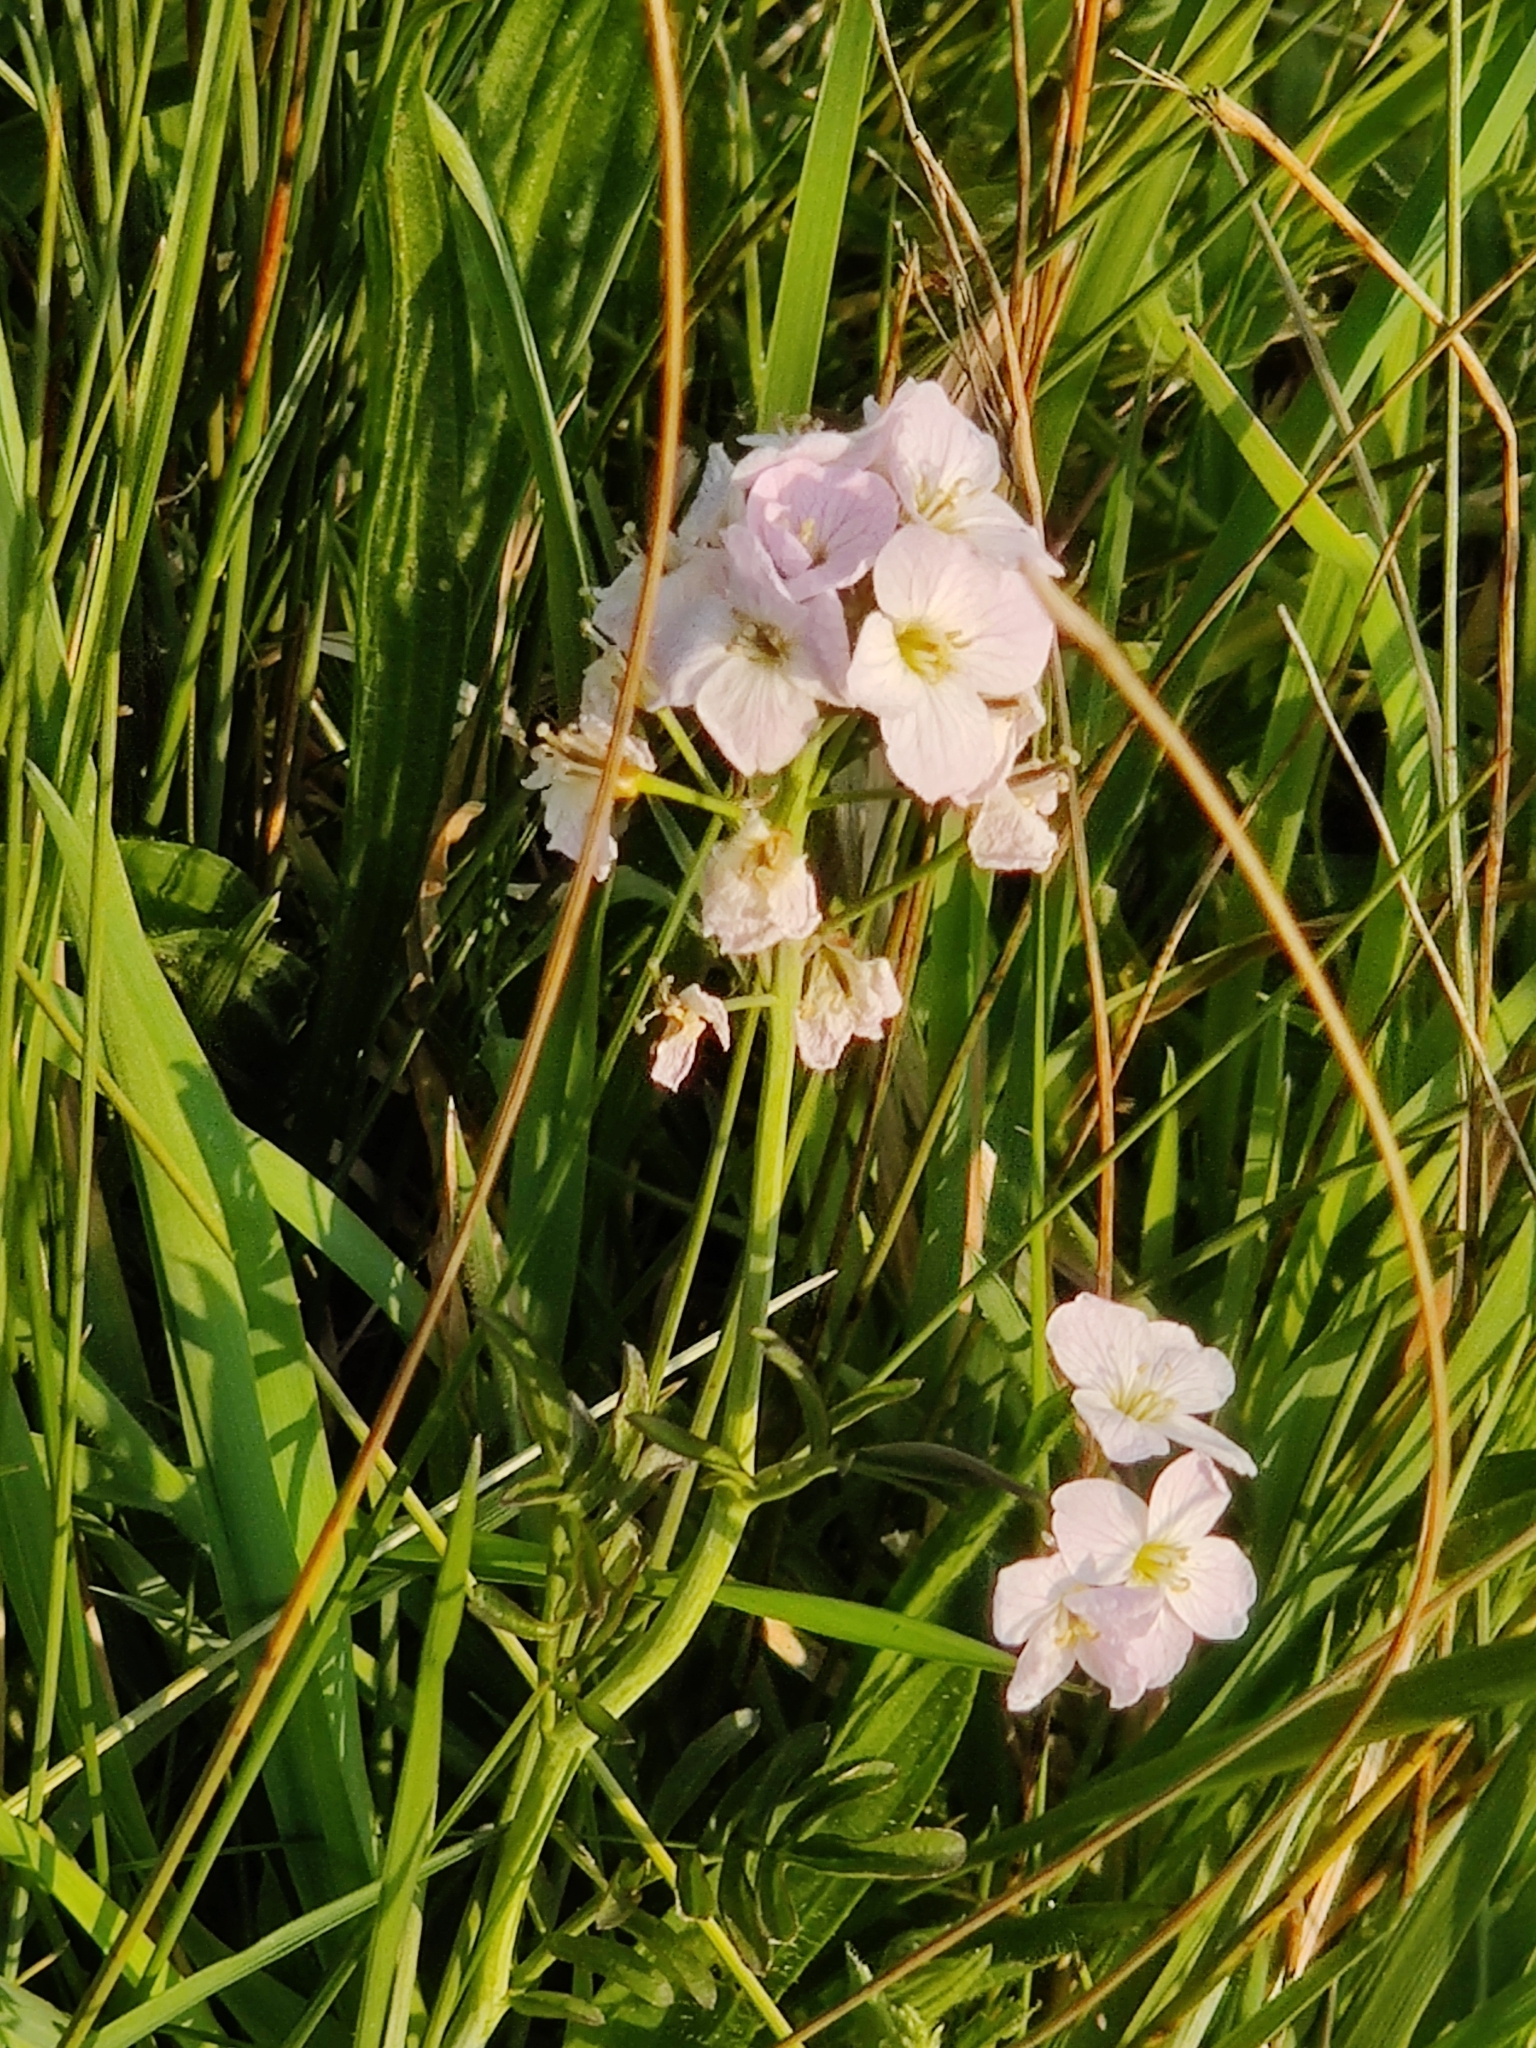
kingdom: Plantae
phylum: Tracheophyta
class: Magnoliopsida
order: Brassicales
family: Brassicaceae
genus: Cardamine
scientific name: Cardamine pratensis
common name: Cuckoo flower
